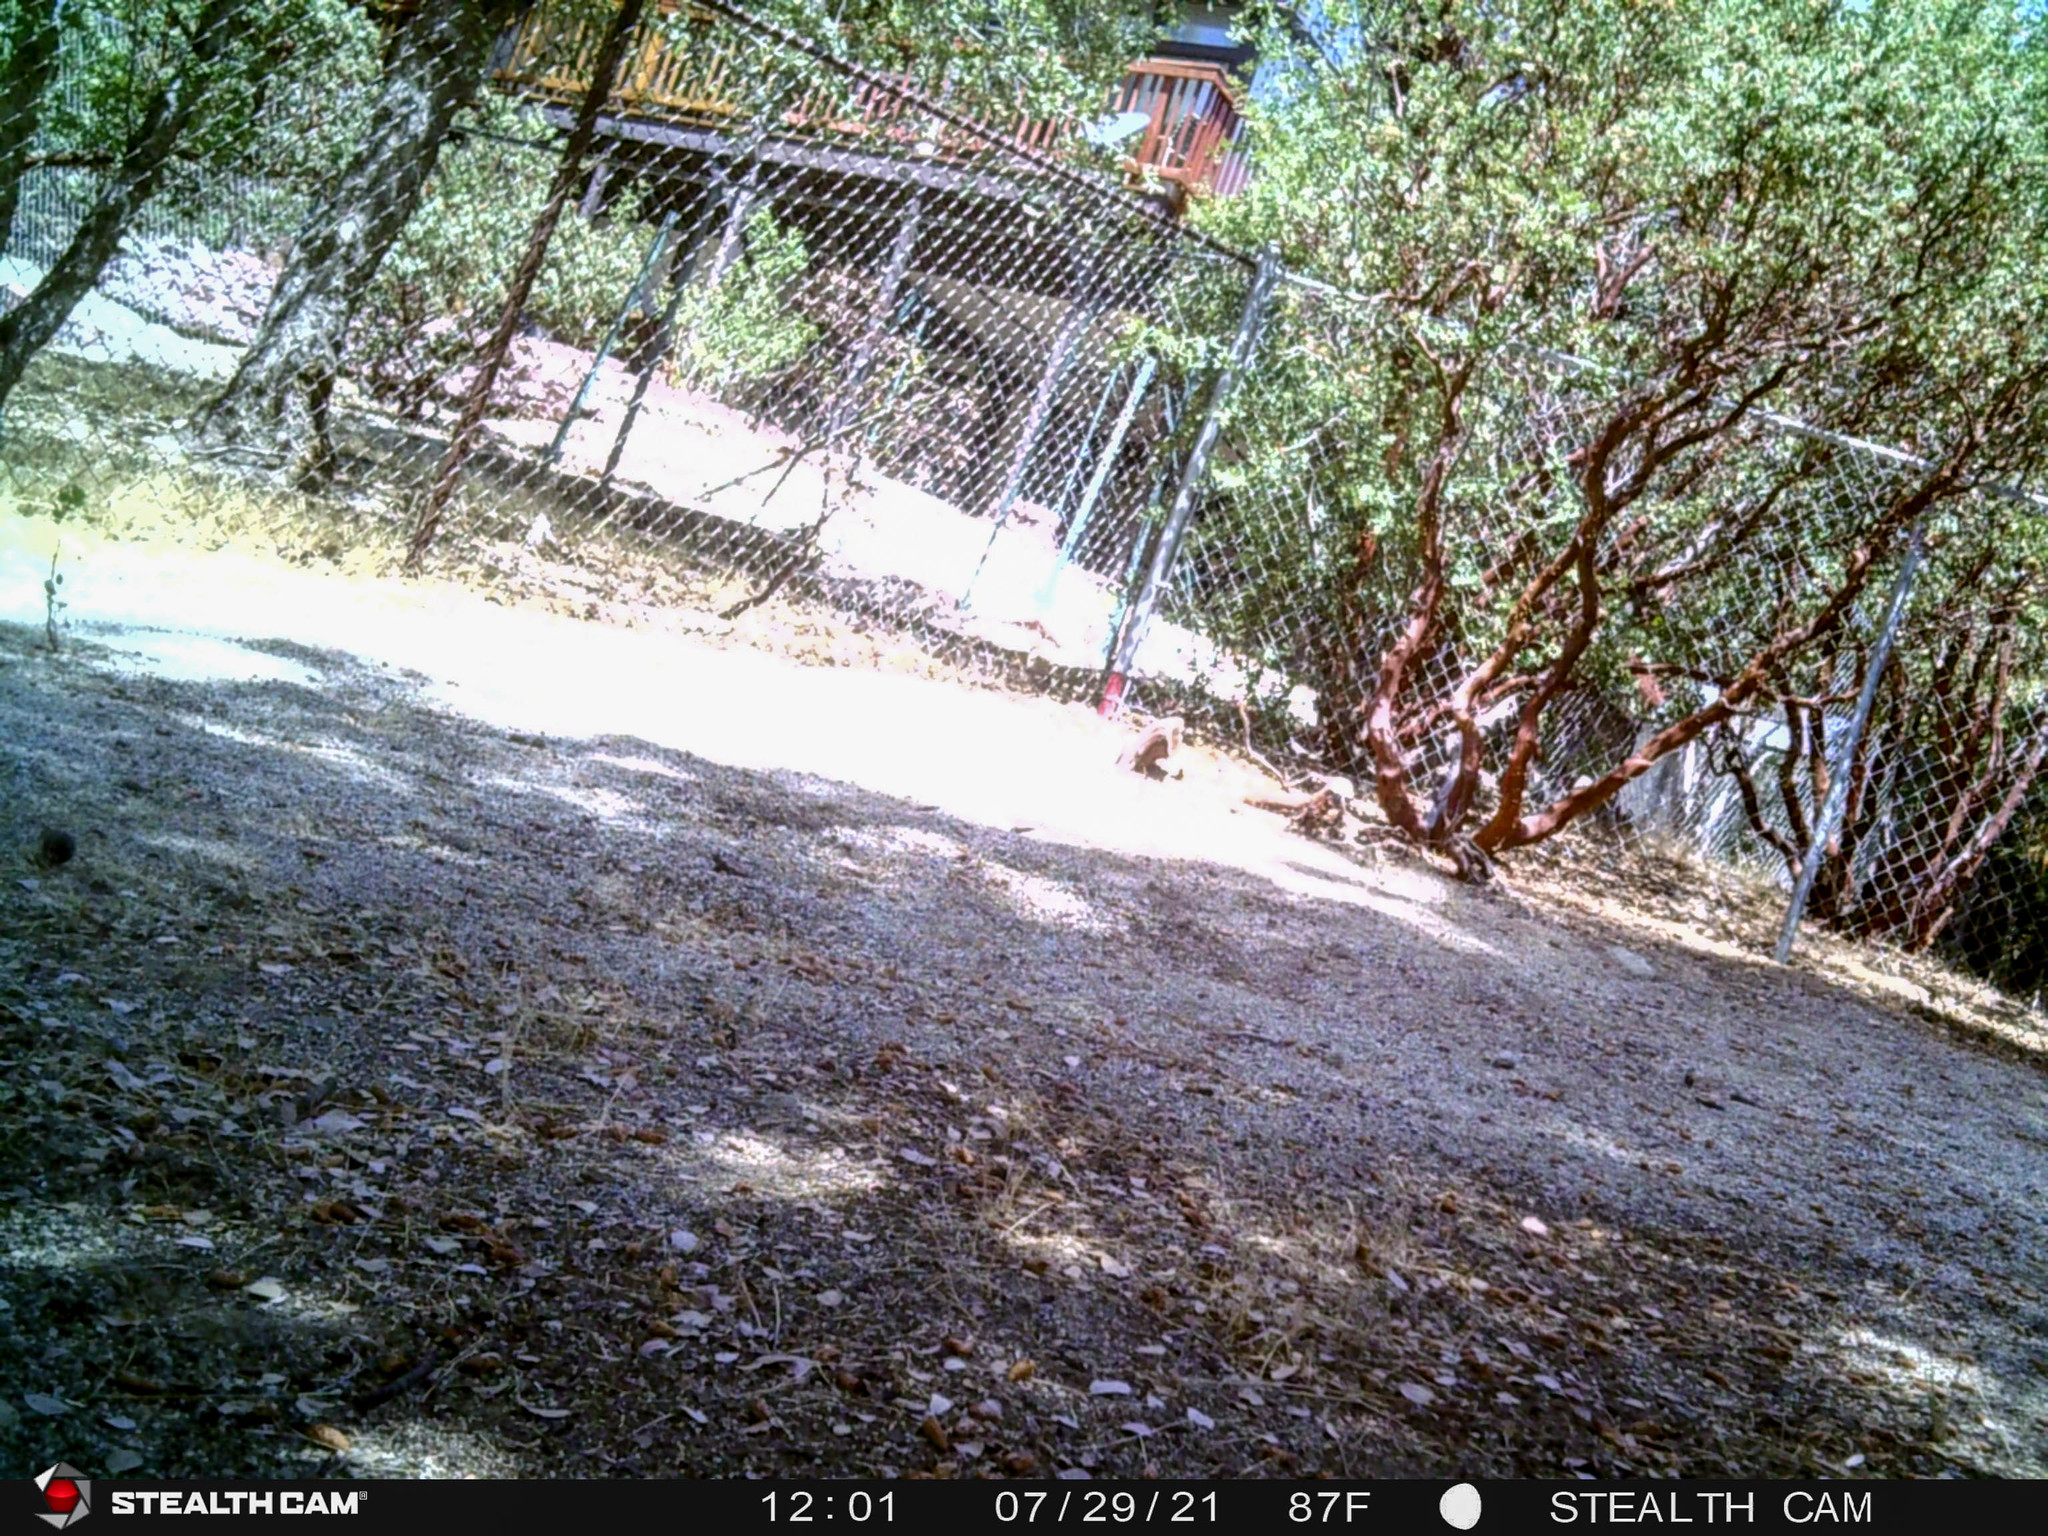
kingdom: Animalia
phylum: Chordata
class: Aves
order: Passeriformes
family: Passerellidae
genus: Junco
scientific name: Junco hyemalis
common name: Dark-eyed junco
